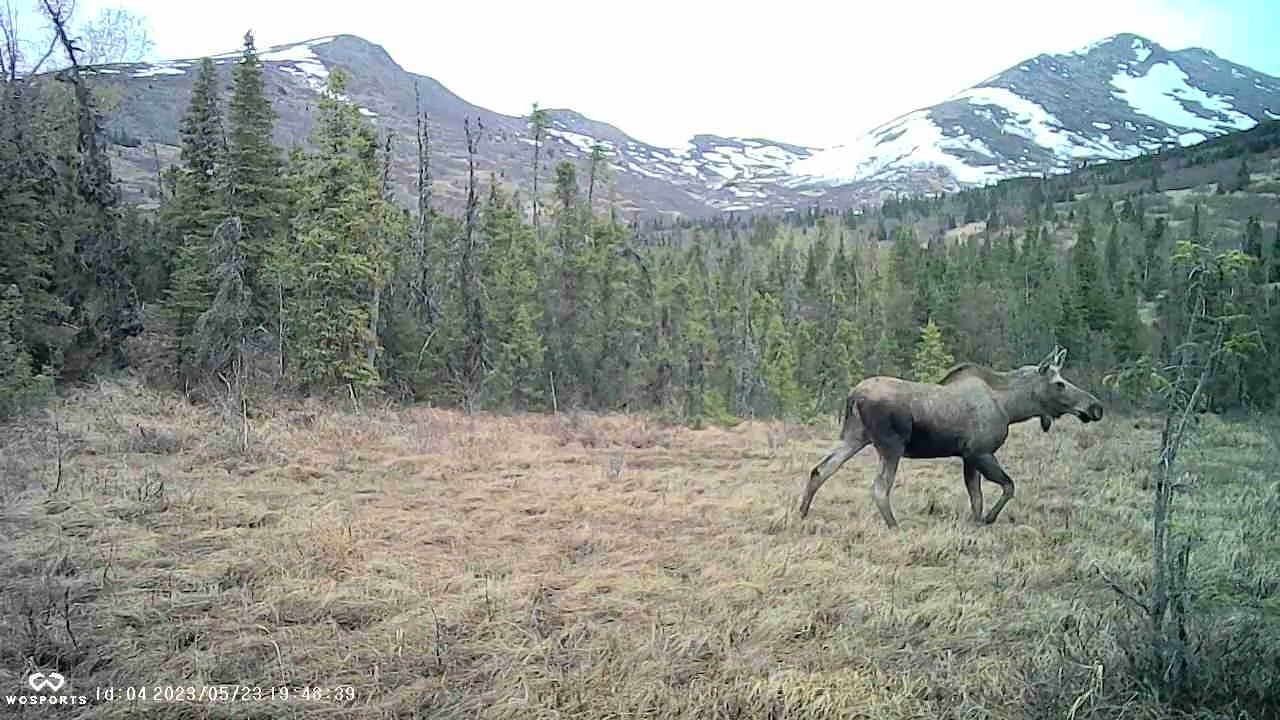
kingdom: Animalia
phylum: Chordata
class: Mammalia
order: Artiodactyla
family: Cervidae
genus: Alces
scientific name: Alces alces
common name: Moose
